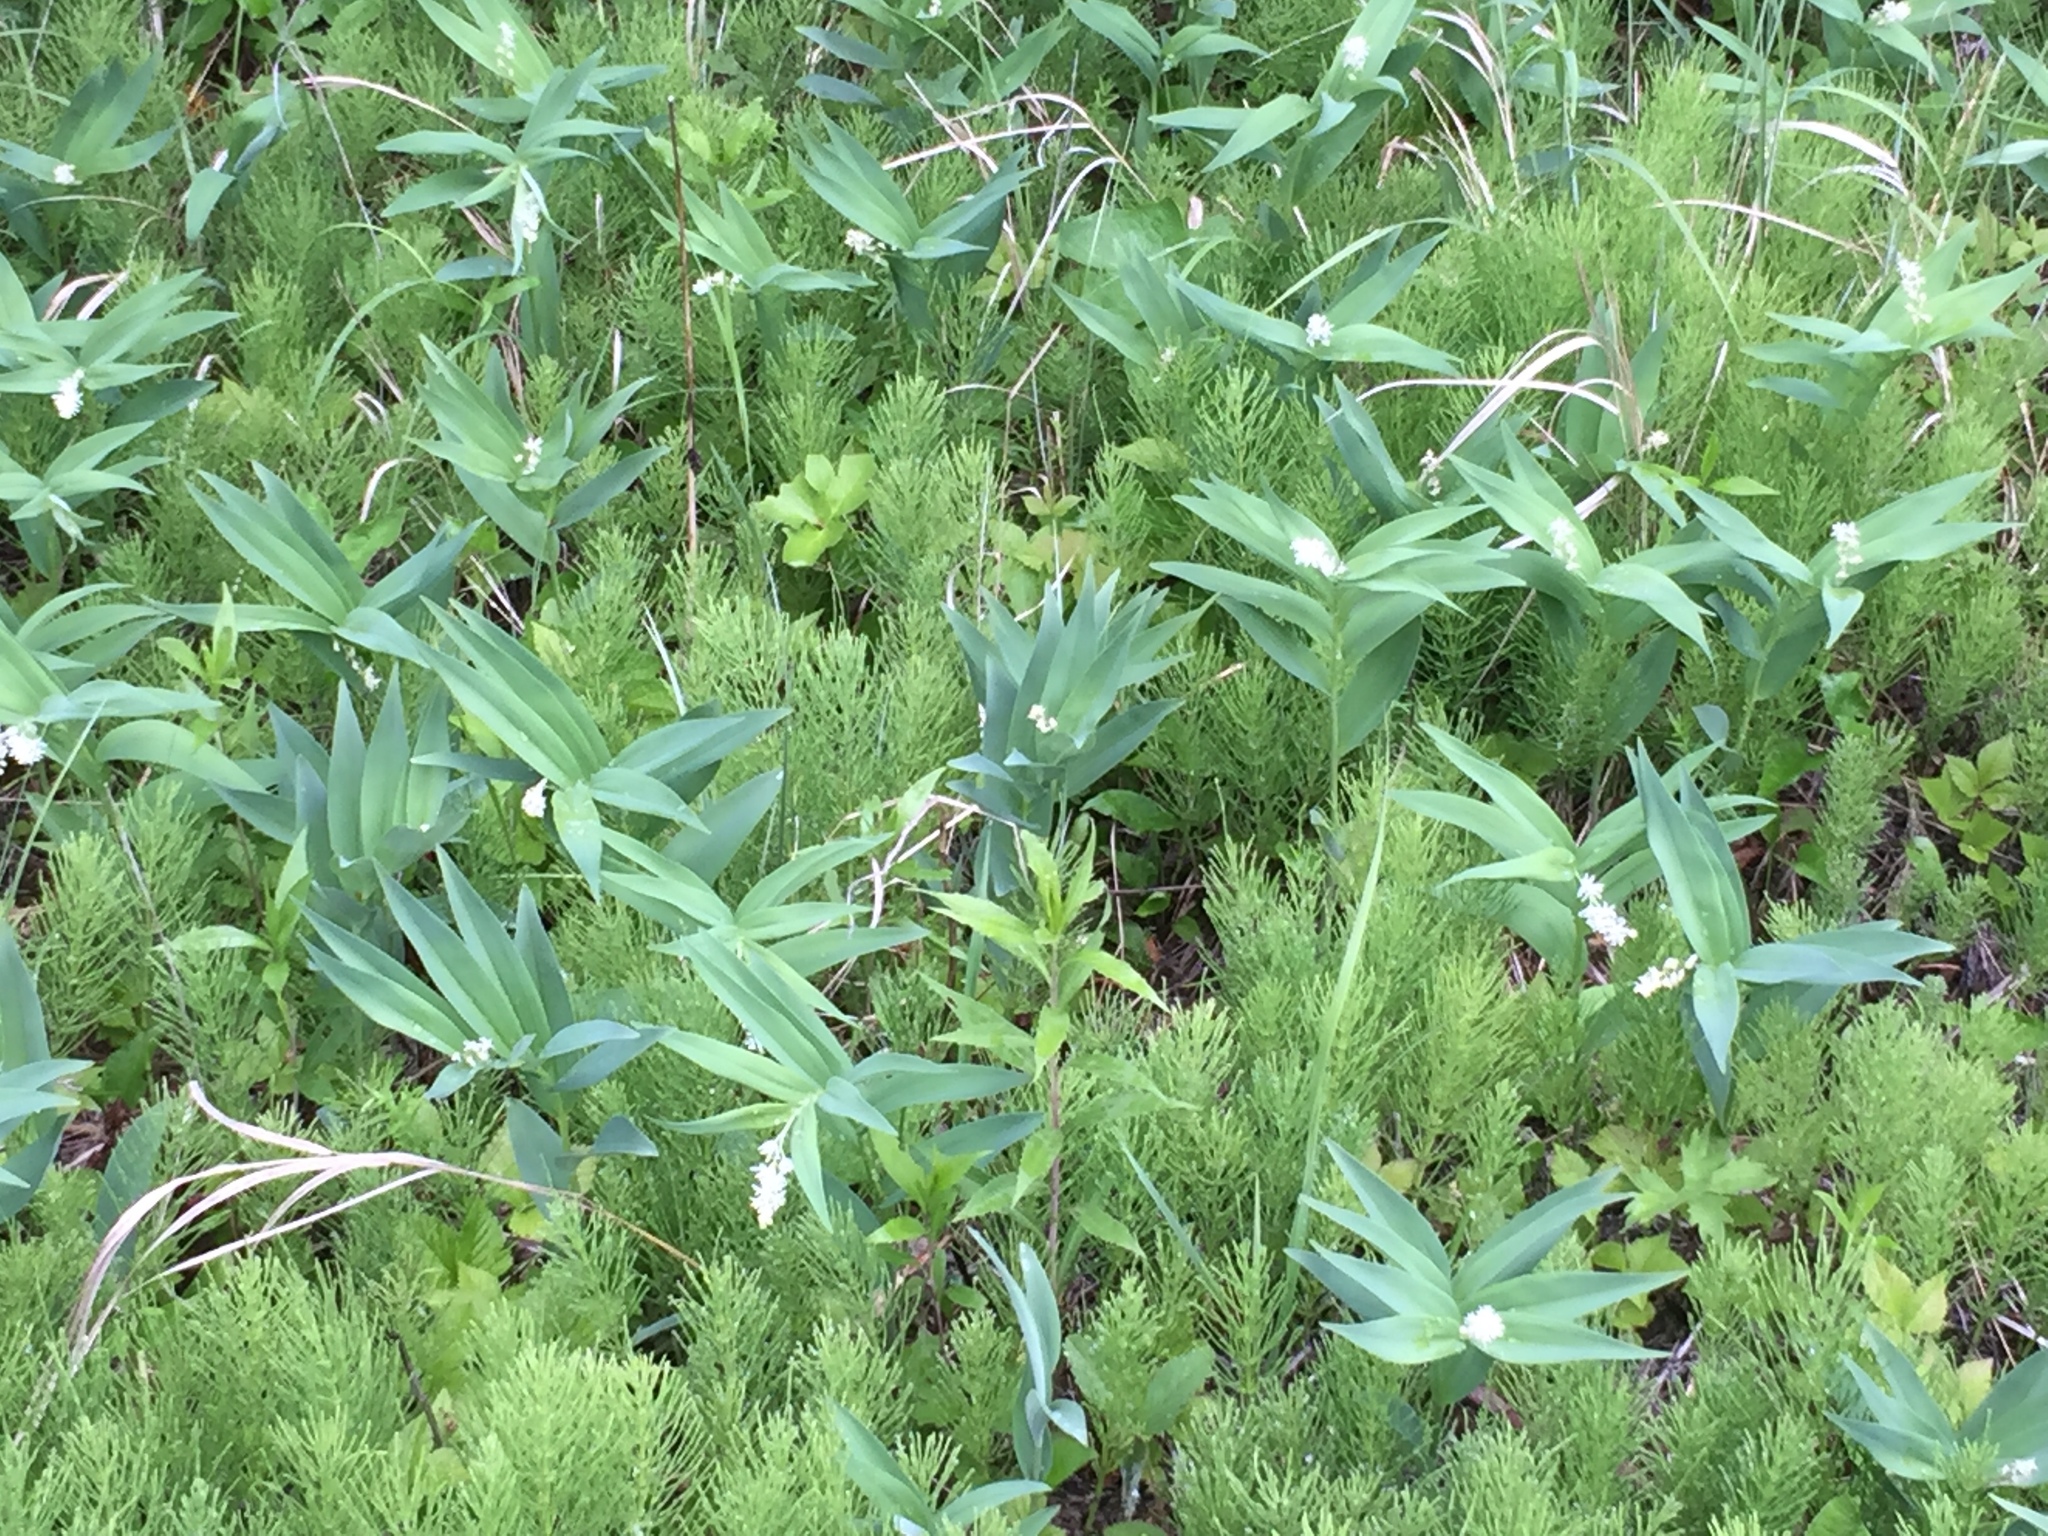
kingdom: Plantae
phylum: Tracheophyta
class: Liliopsida
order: Asparagales
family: Asparagaceae
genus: Maianthemum
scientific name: Maianthemum stellatum
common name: Little false solomon's seal
